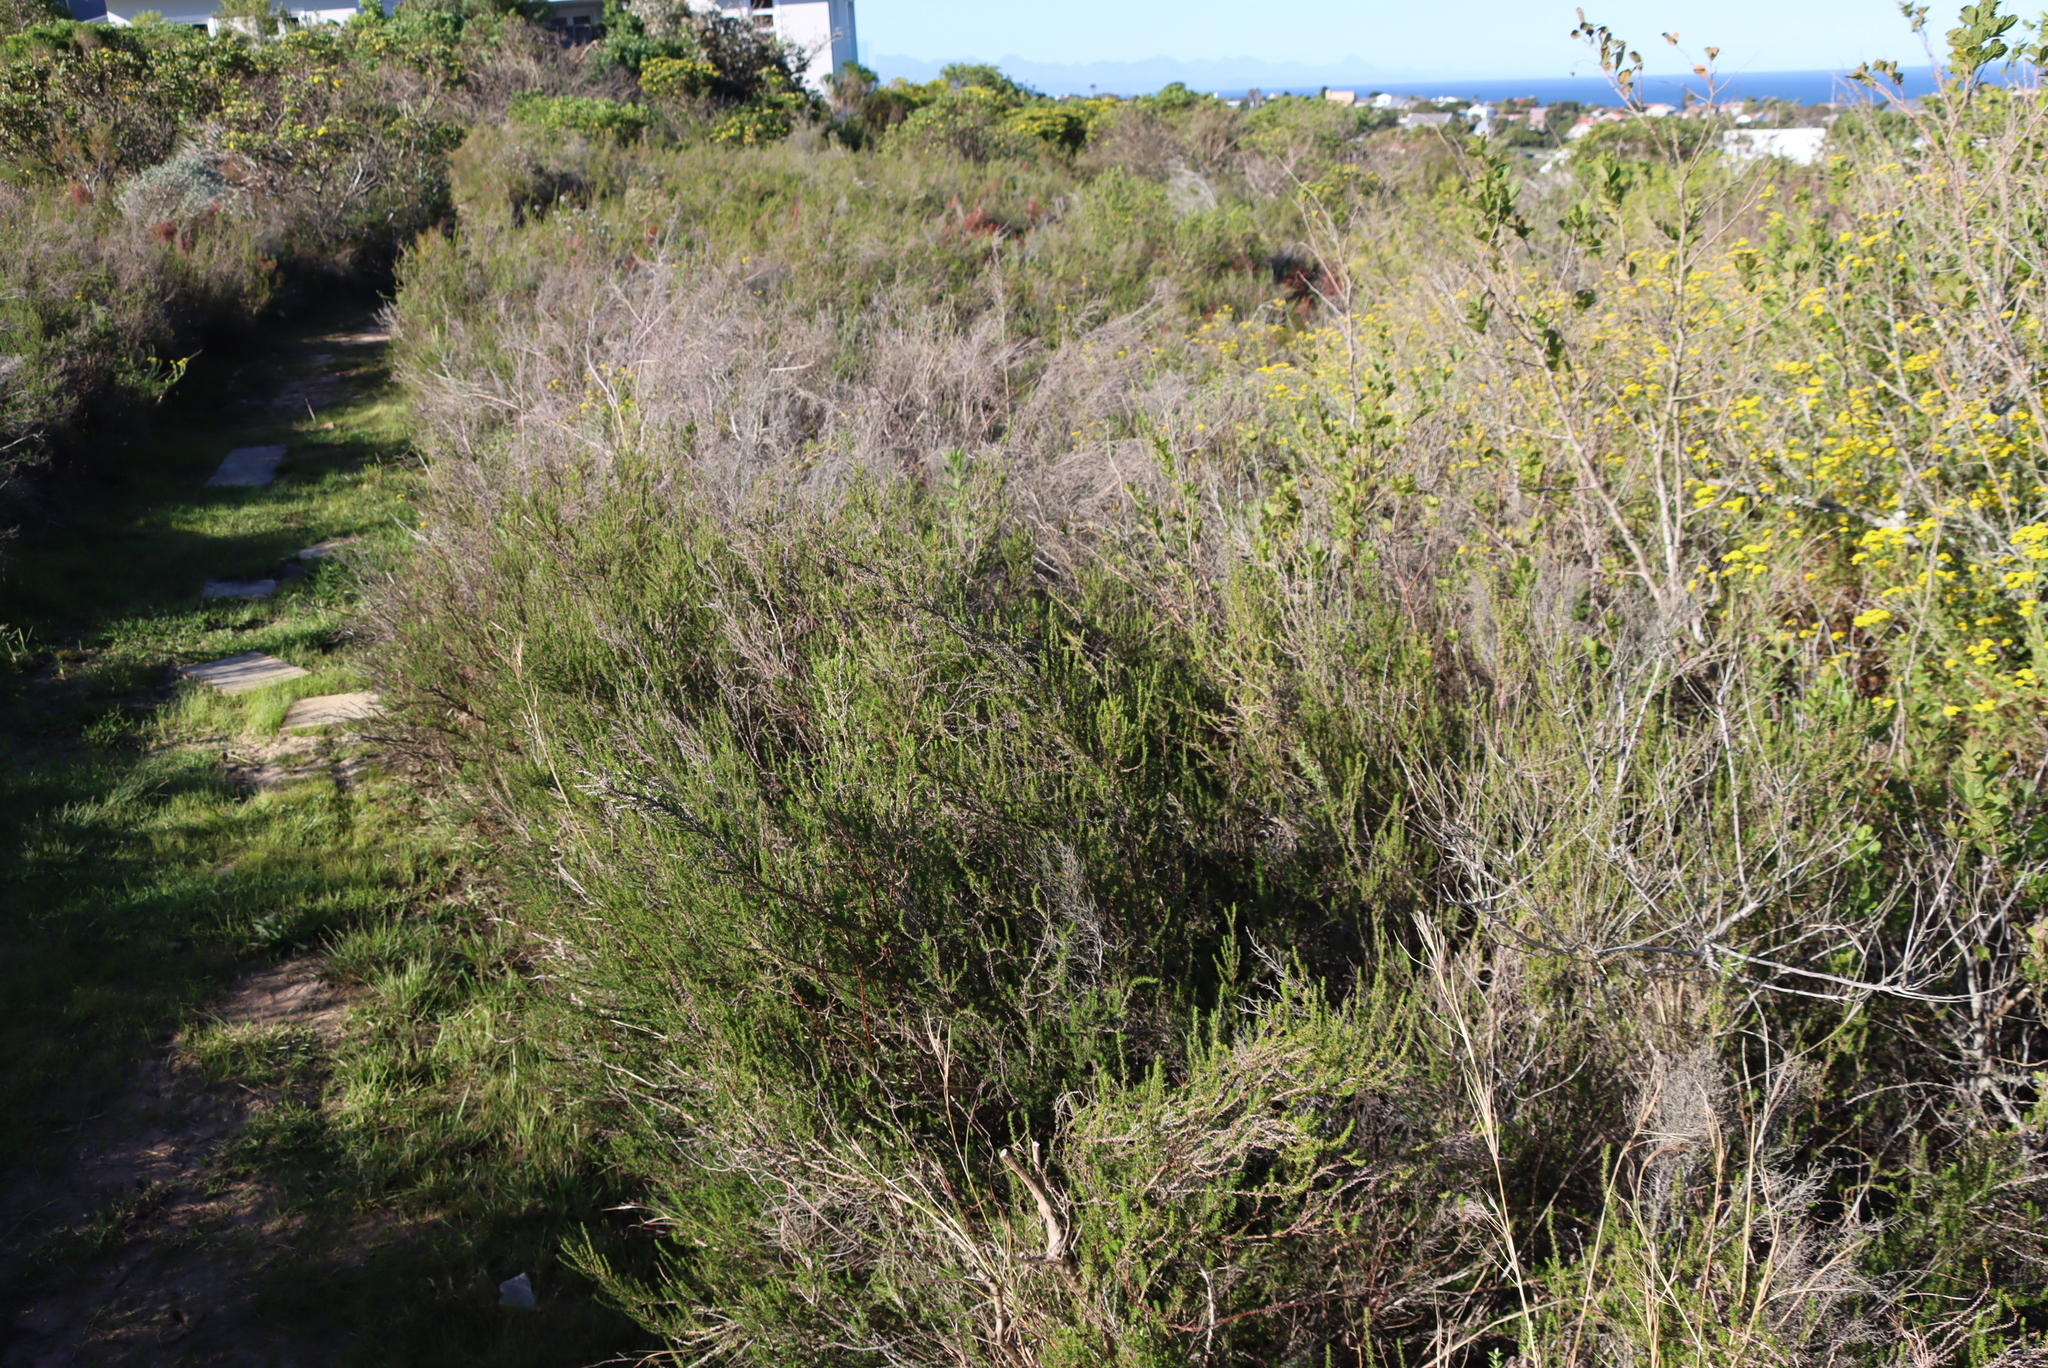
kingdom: Plantae
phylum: Tracheophyta
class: Magnoliopsida
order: Rosales
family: Rosaceae
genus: Cliffortia
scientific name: Cliffortia linearifolia
